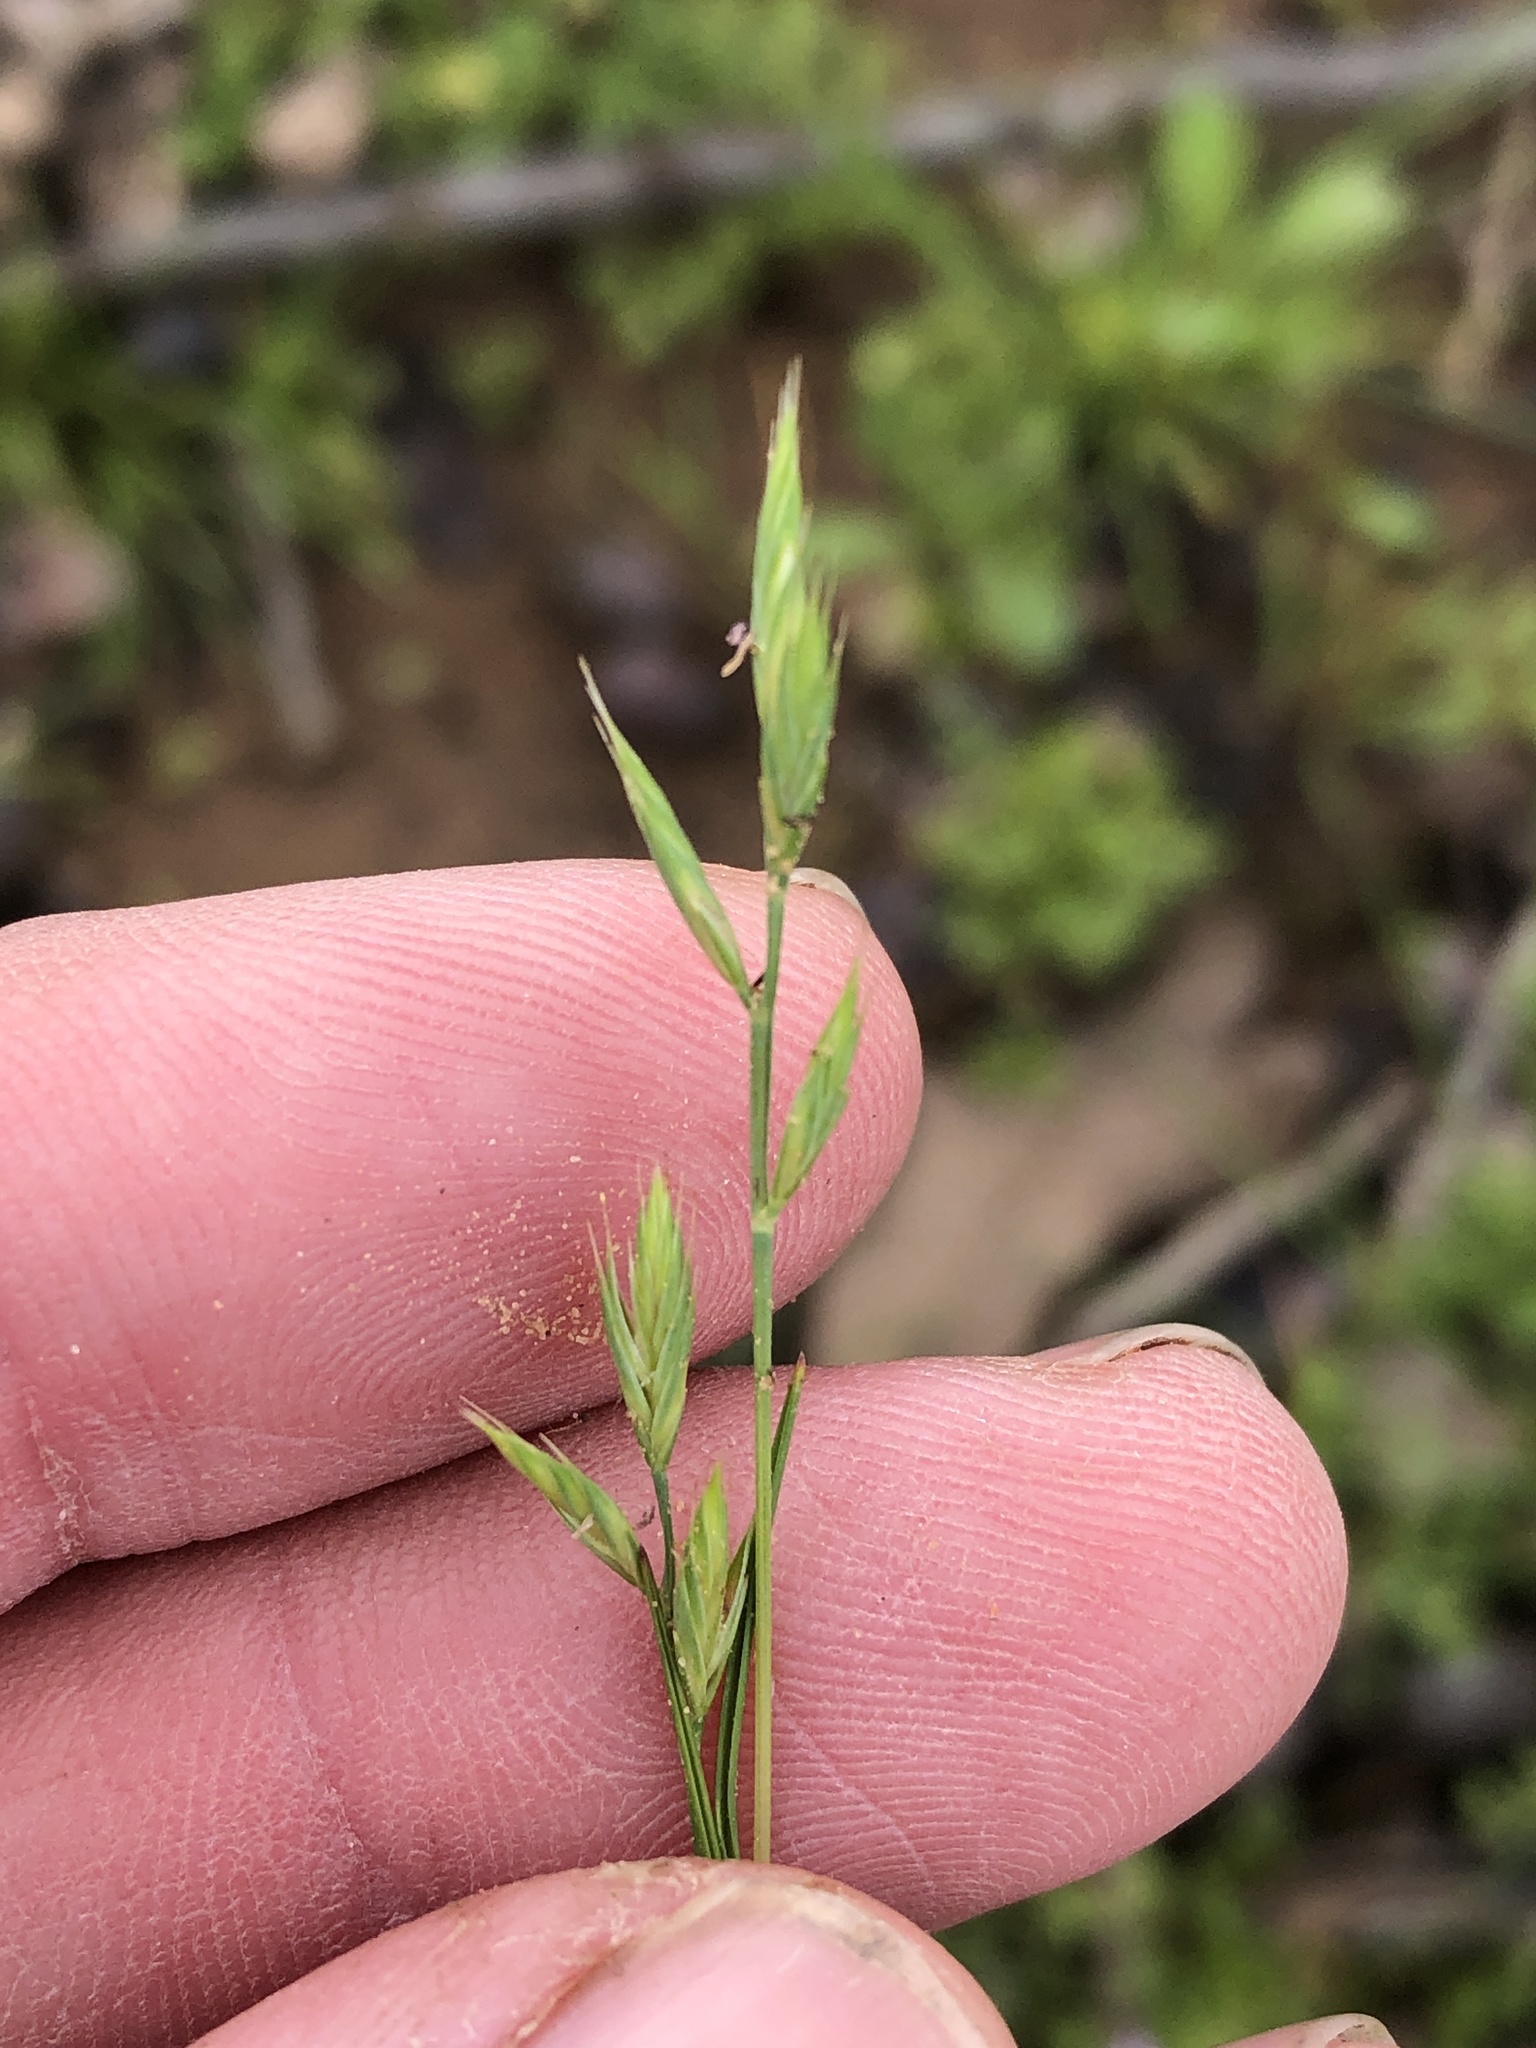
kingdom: Plantae
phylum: Tracheophyta
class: Liliopsida
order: Poales
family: Poaceae
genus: Festuca
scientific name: Festuca octoflora
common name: Sixweeks grass
